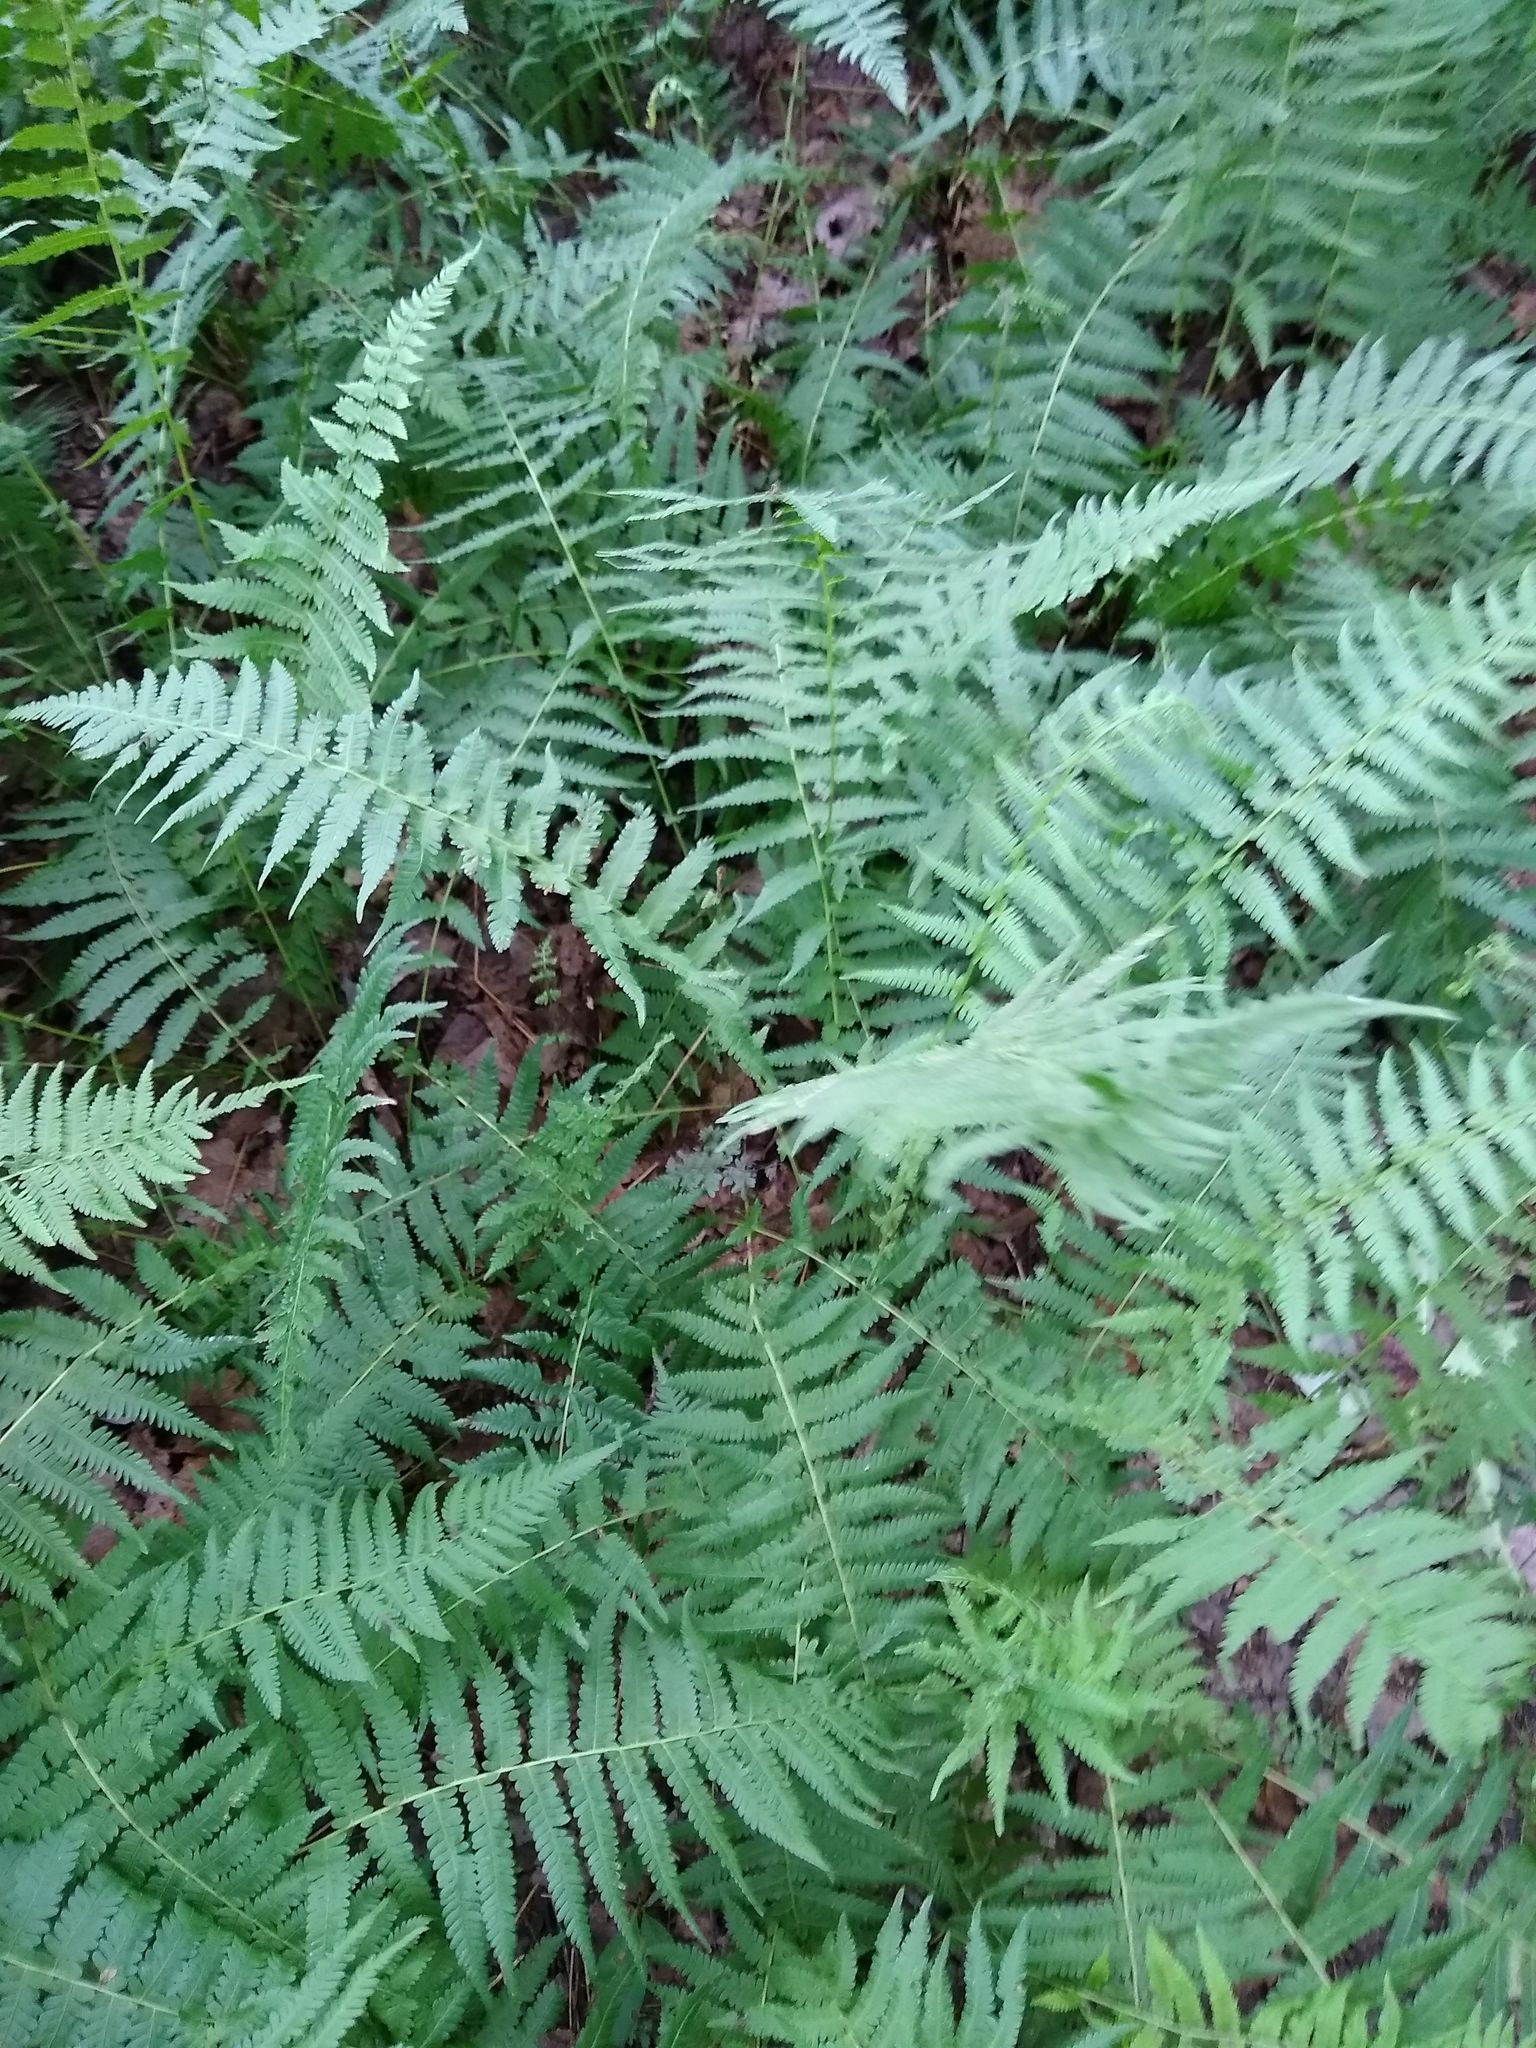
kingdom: Plantae
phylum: Tracheophyta
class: Polypodiopsida
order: Polypodiales
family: Thelypteridaceae
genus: Amauropelta
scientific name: Amauropelta noveboracensis
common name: New york fern
